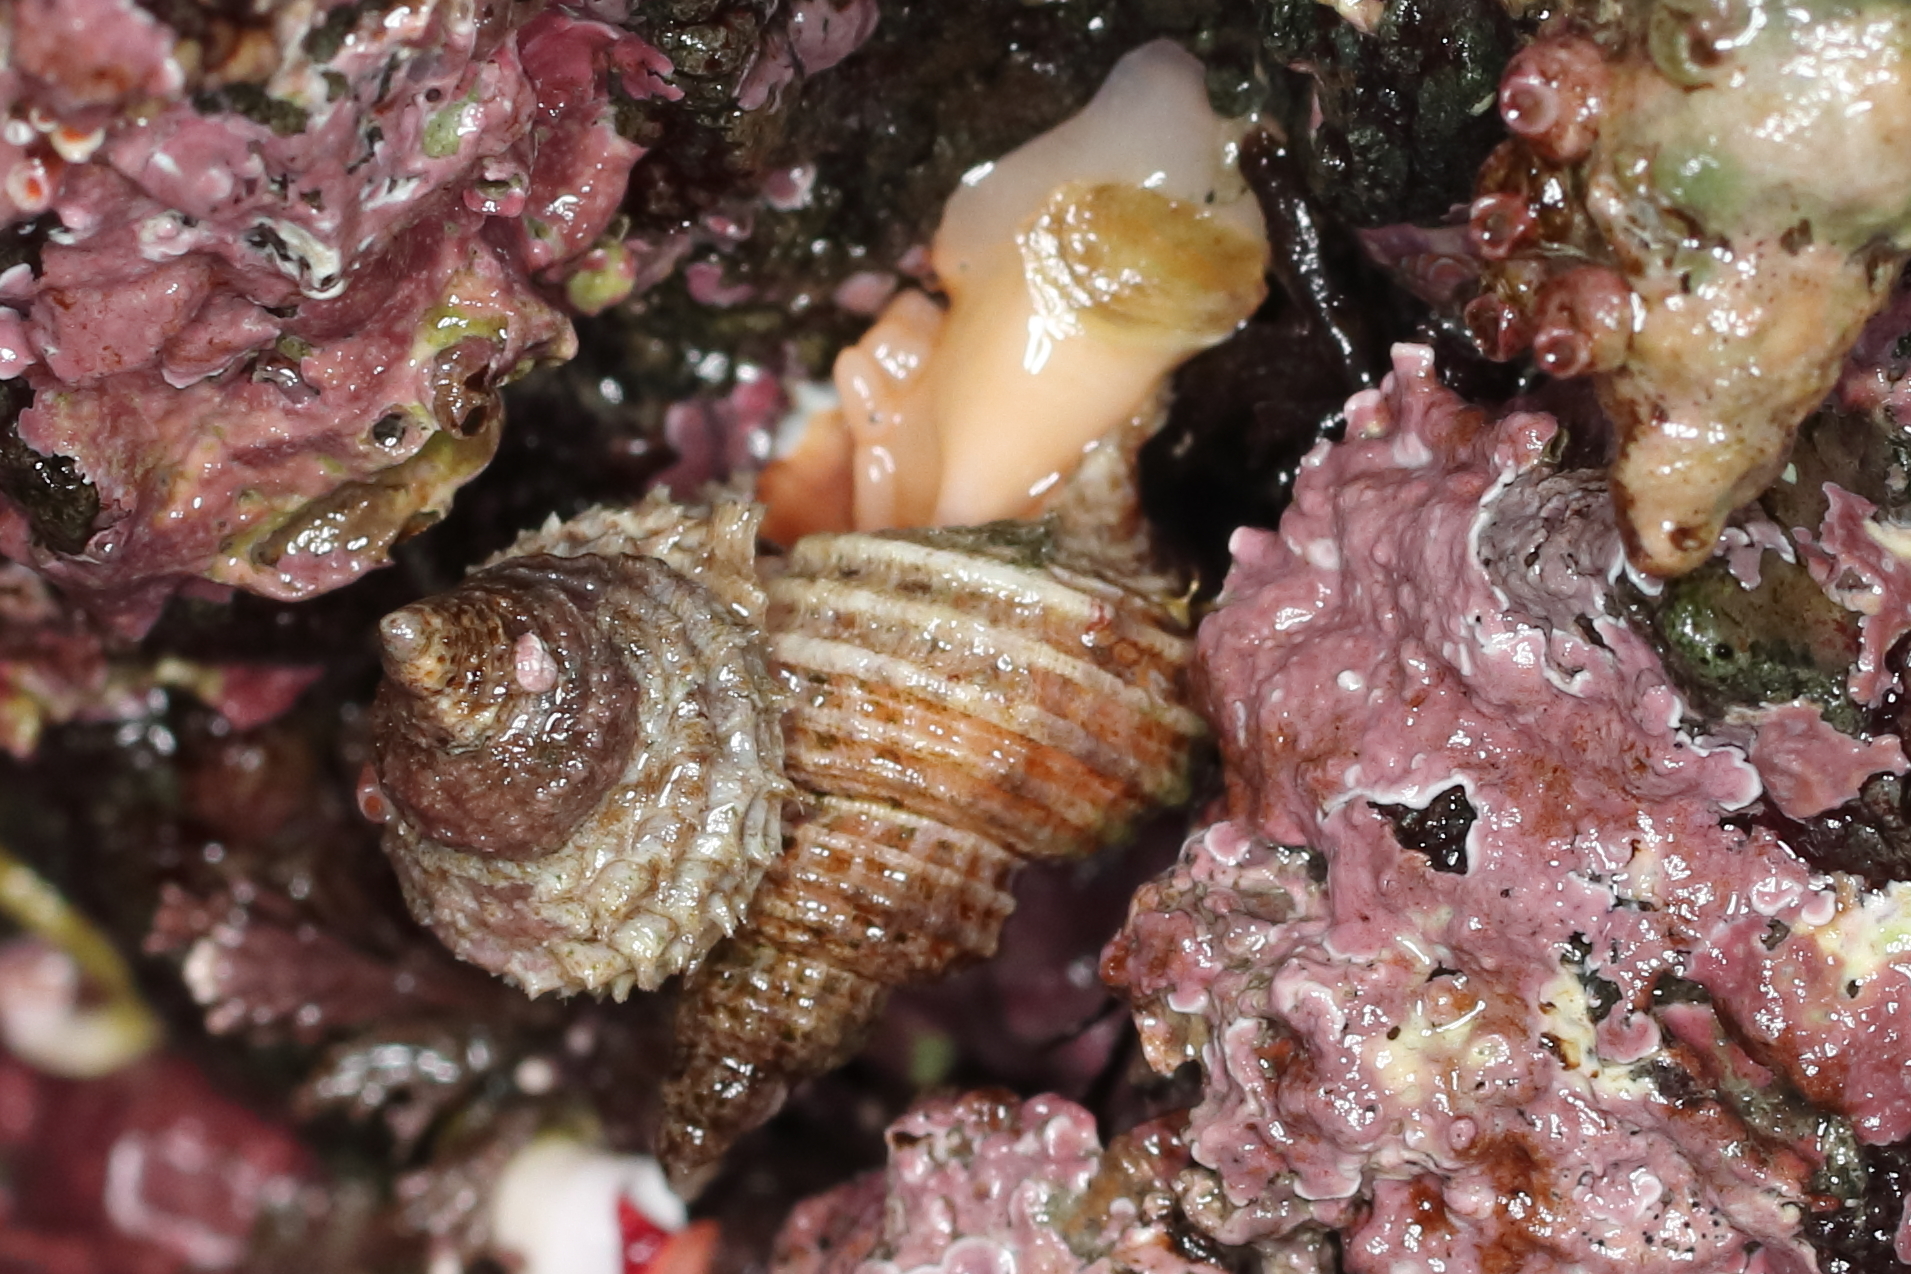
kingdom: Animalia
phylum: Mollusca
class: Gastropoda
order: Littorinimorpha
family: Capulidae
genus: Trichotropis
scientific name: Trichotropis cancellata
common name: Cancellate hairysnail
